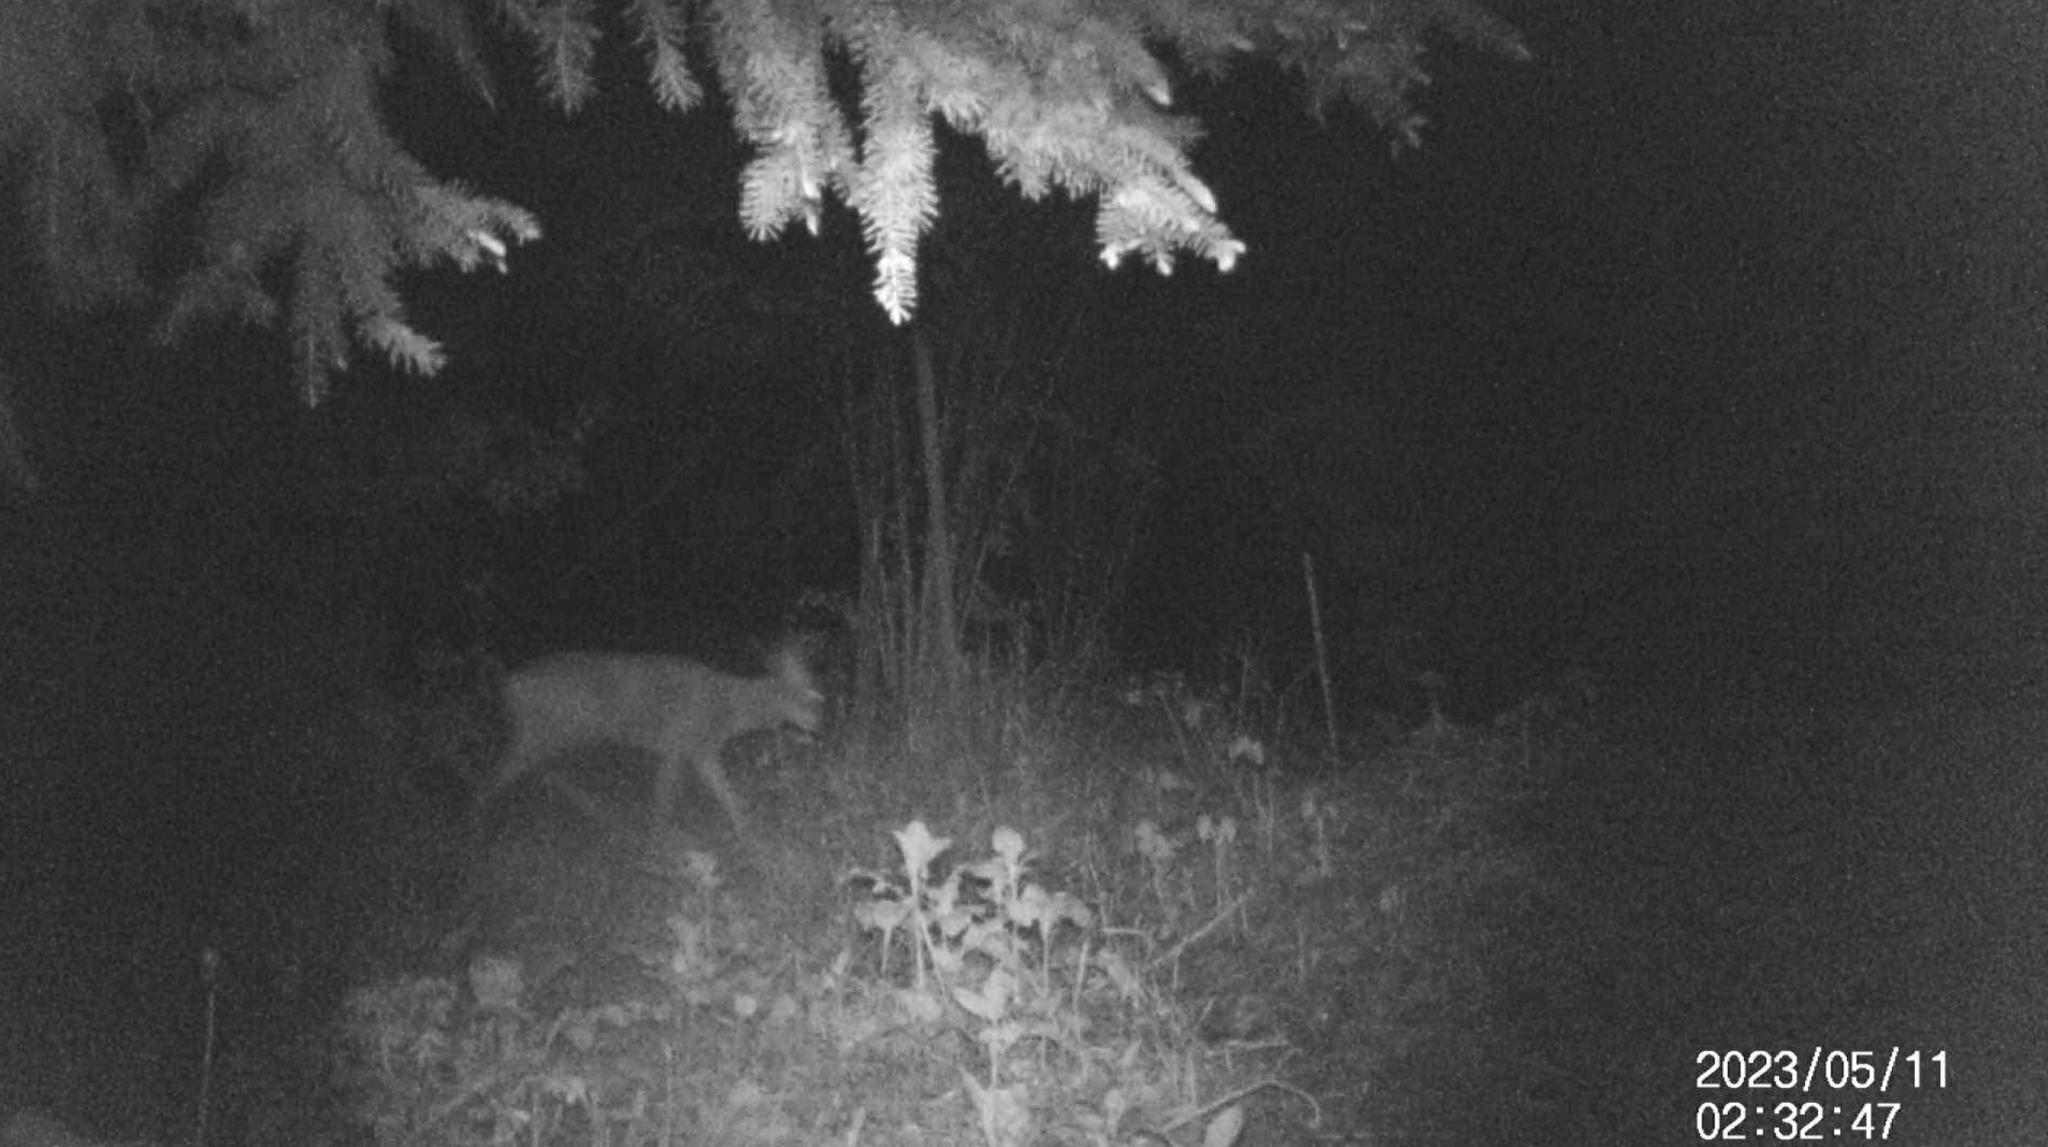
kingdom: Animalia
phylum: Chordata
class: Mammalia
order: Artiodactyla
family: Cervidae
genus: Capreolus
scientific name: Capreolus capreolus
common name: Western roe deer
